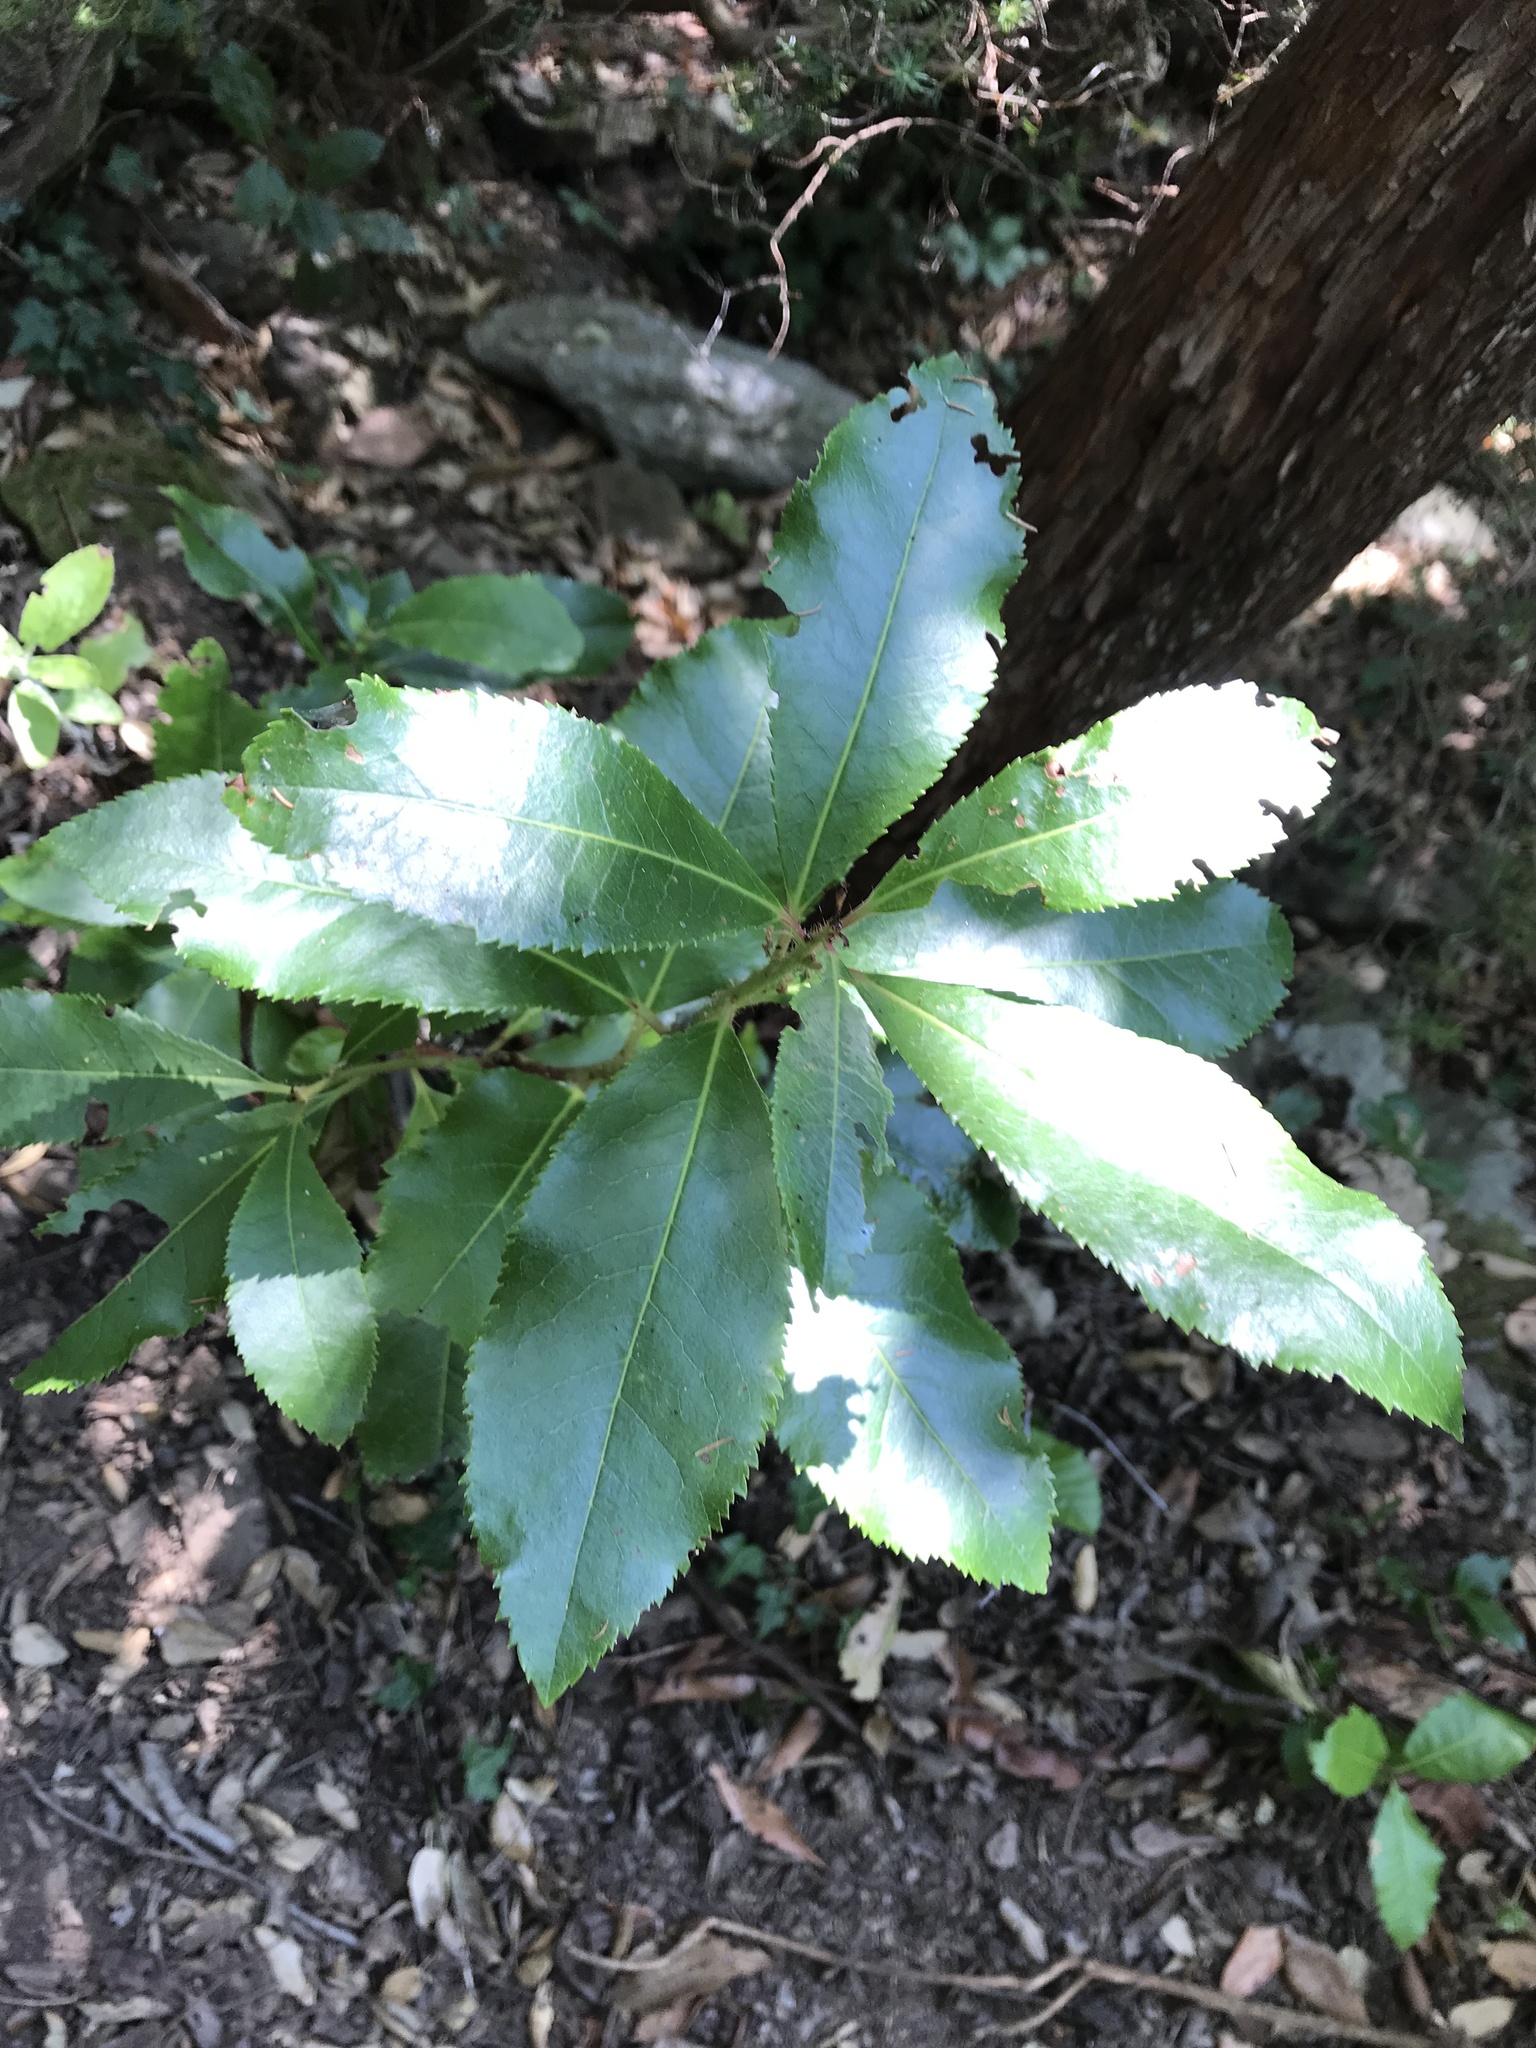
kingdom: Plantae
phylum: Tracheophyta
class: Magnoliopsida
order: Ericales
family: Ericaceae
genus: Arbutus
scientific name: Arbutus unedo
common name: Strawberry-tree
